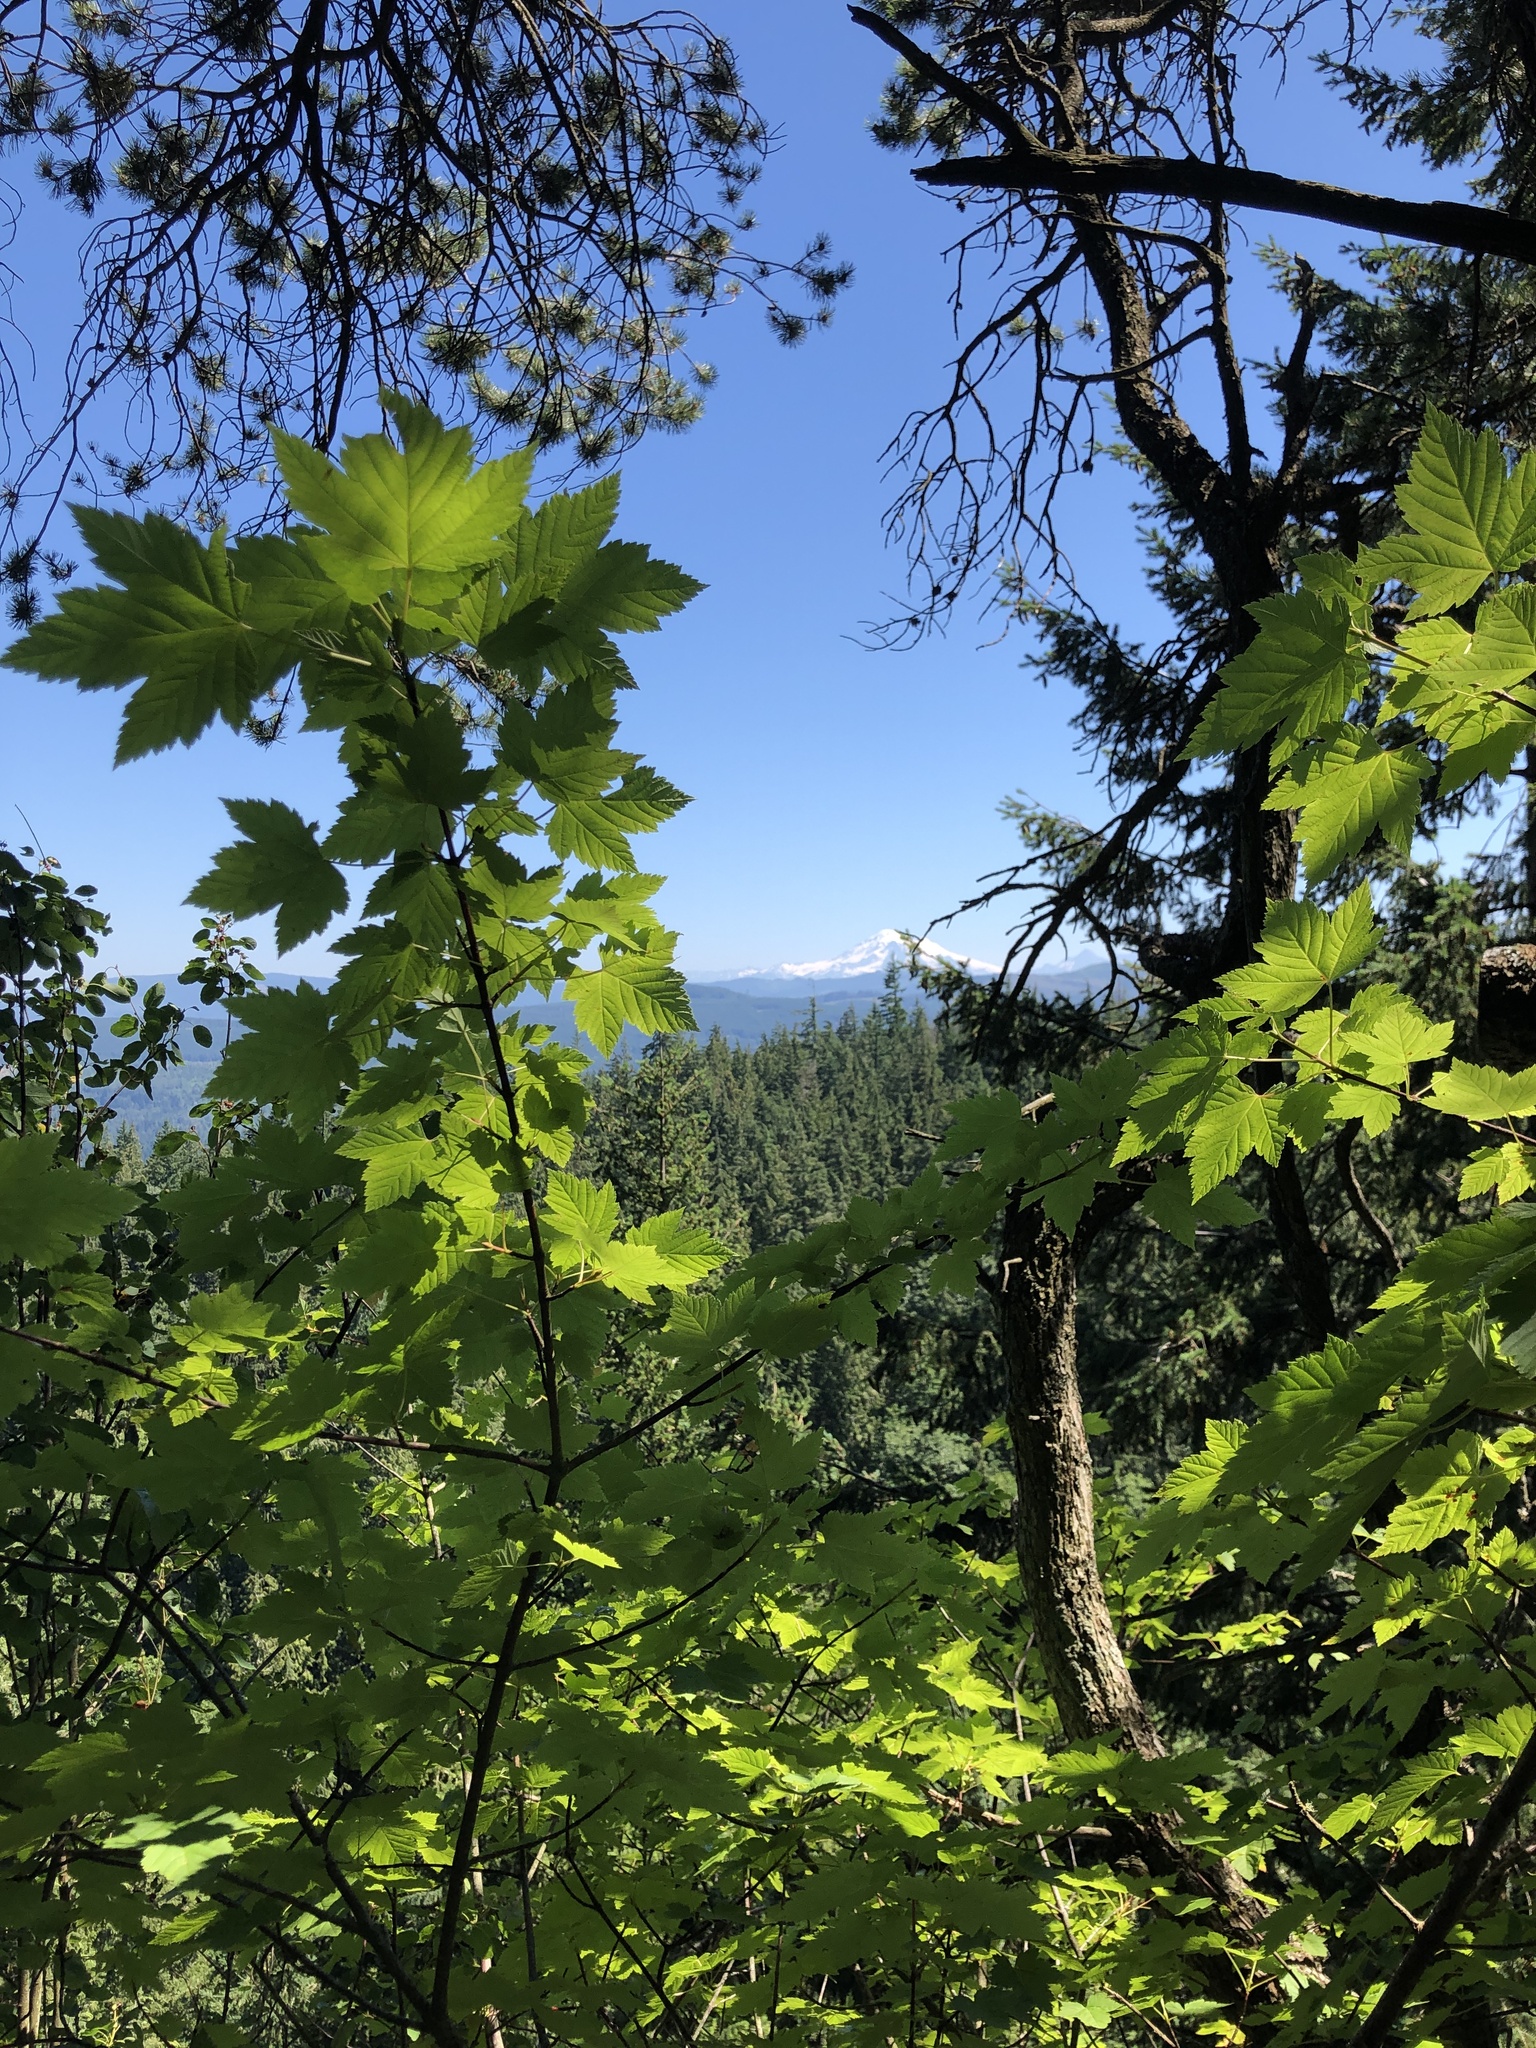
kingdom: Plantae
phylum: Tracheophyta
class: Magnoliopsida
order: Sapindales
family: Sapindaceae
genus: Acer
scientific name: Acer glabrum
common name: Rocky mountain maple
